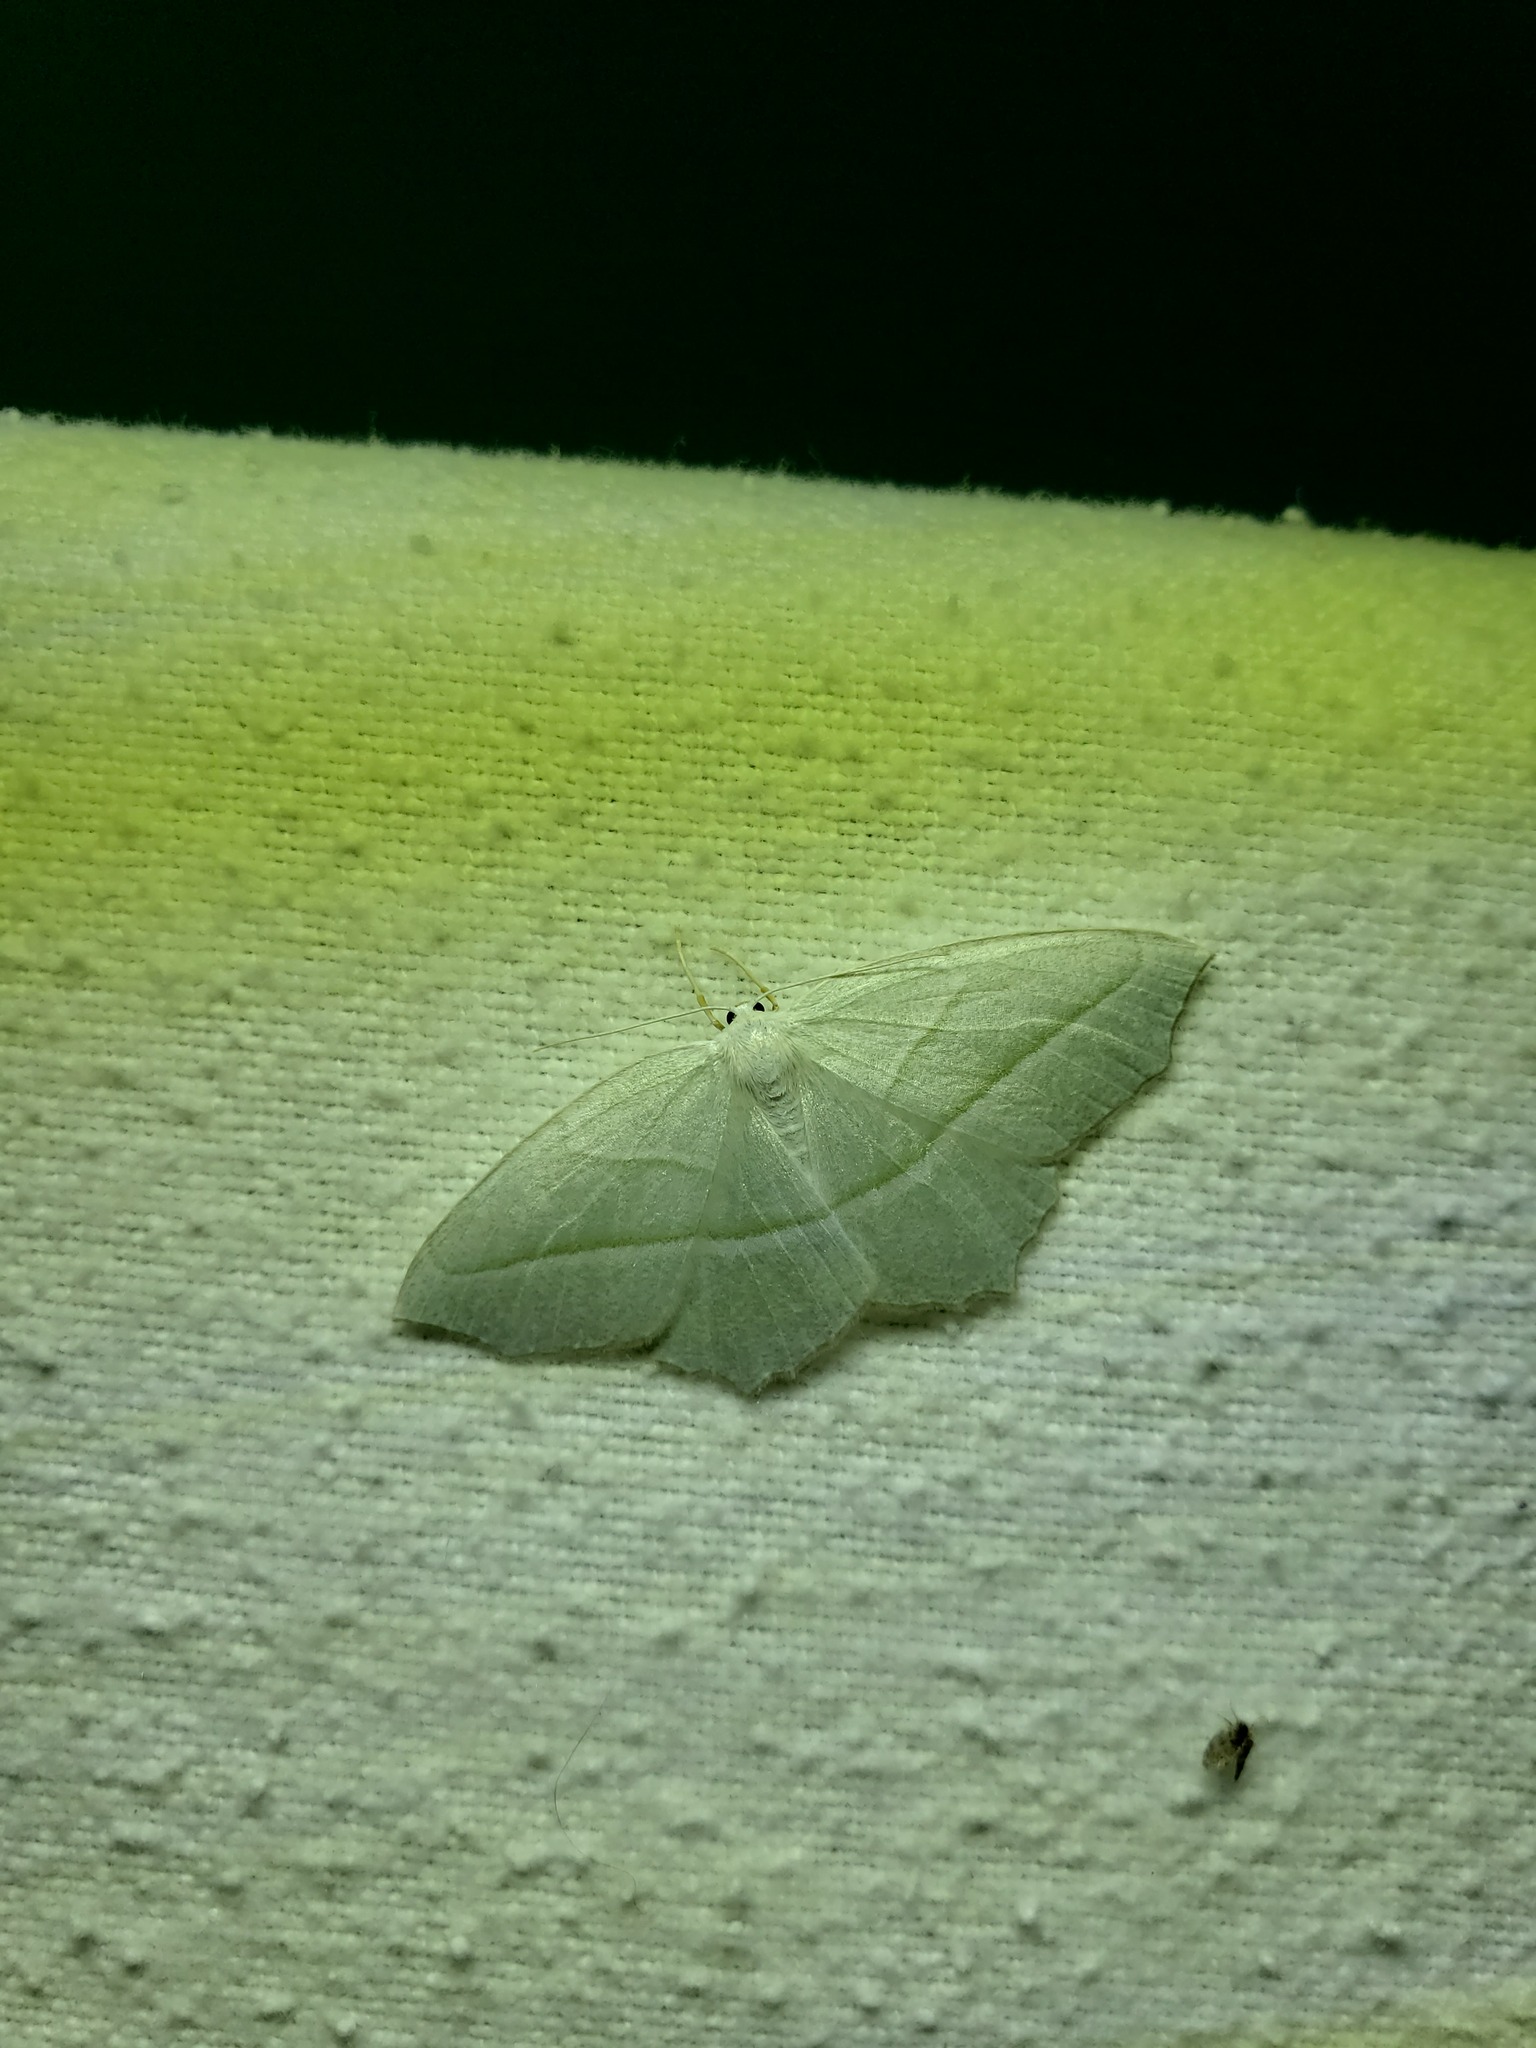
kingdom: Animalia
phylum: Arthropoda
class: Insecta
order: Lepidoptera
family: Geometridae
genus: Campaea
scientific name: Campaea perlata
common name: Fringed looper
